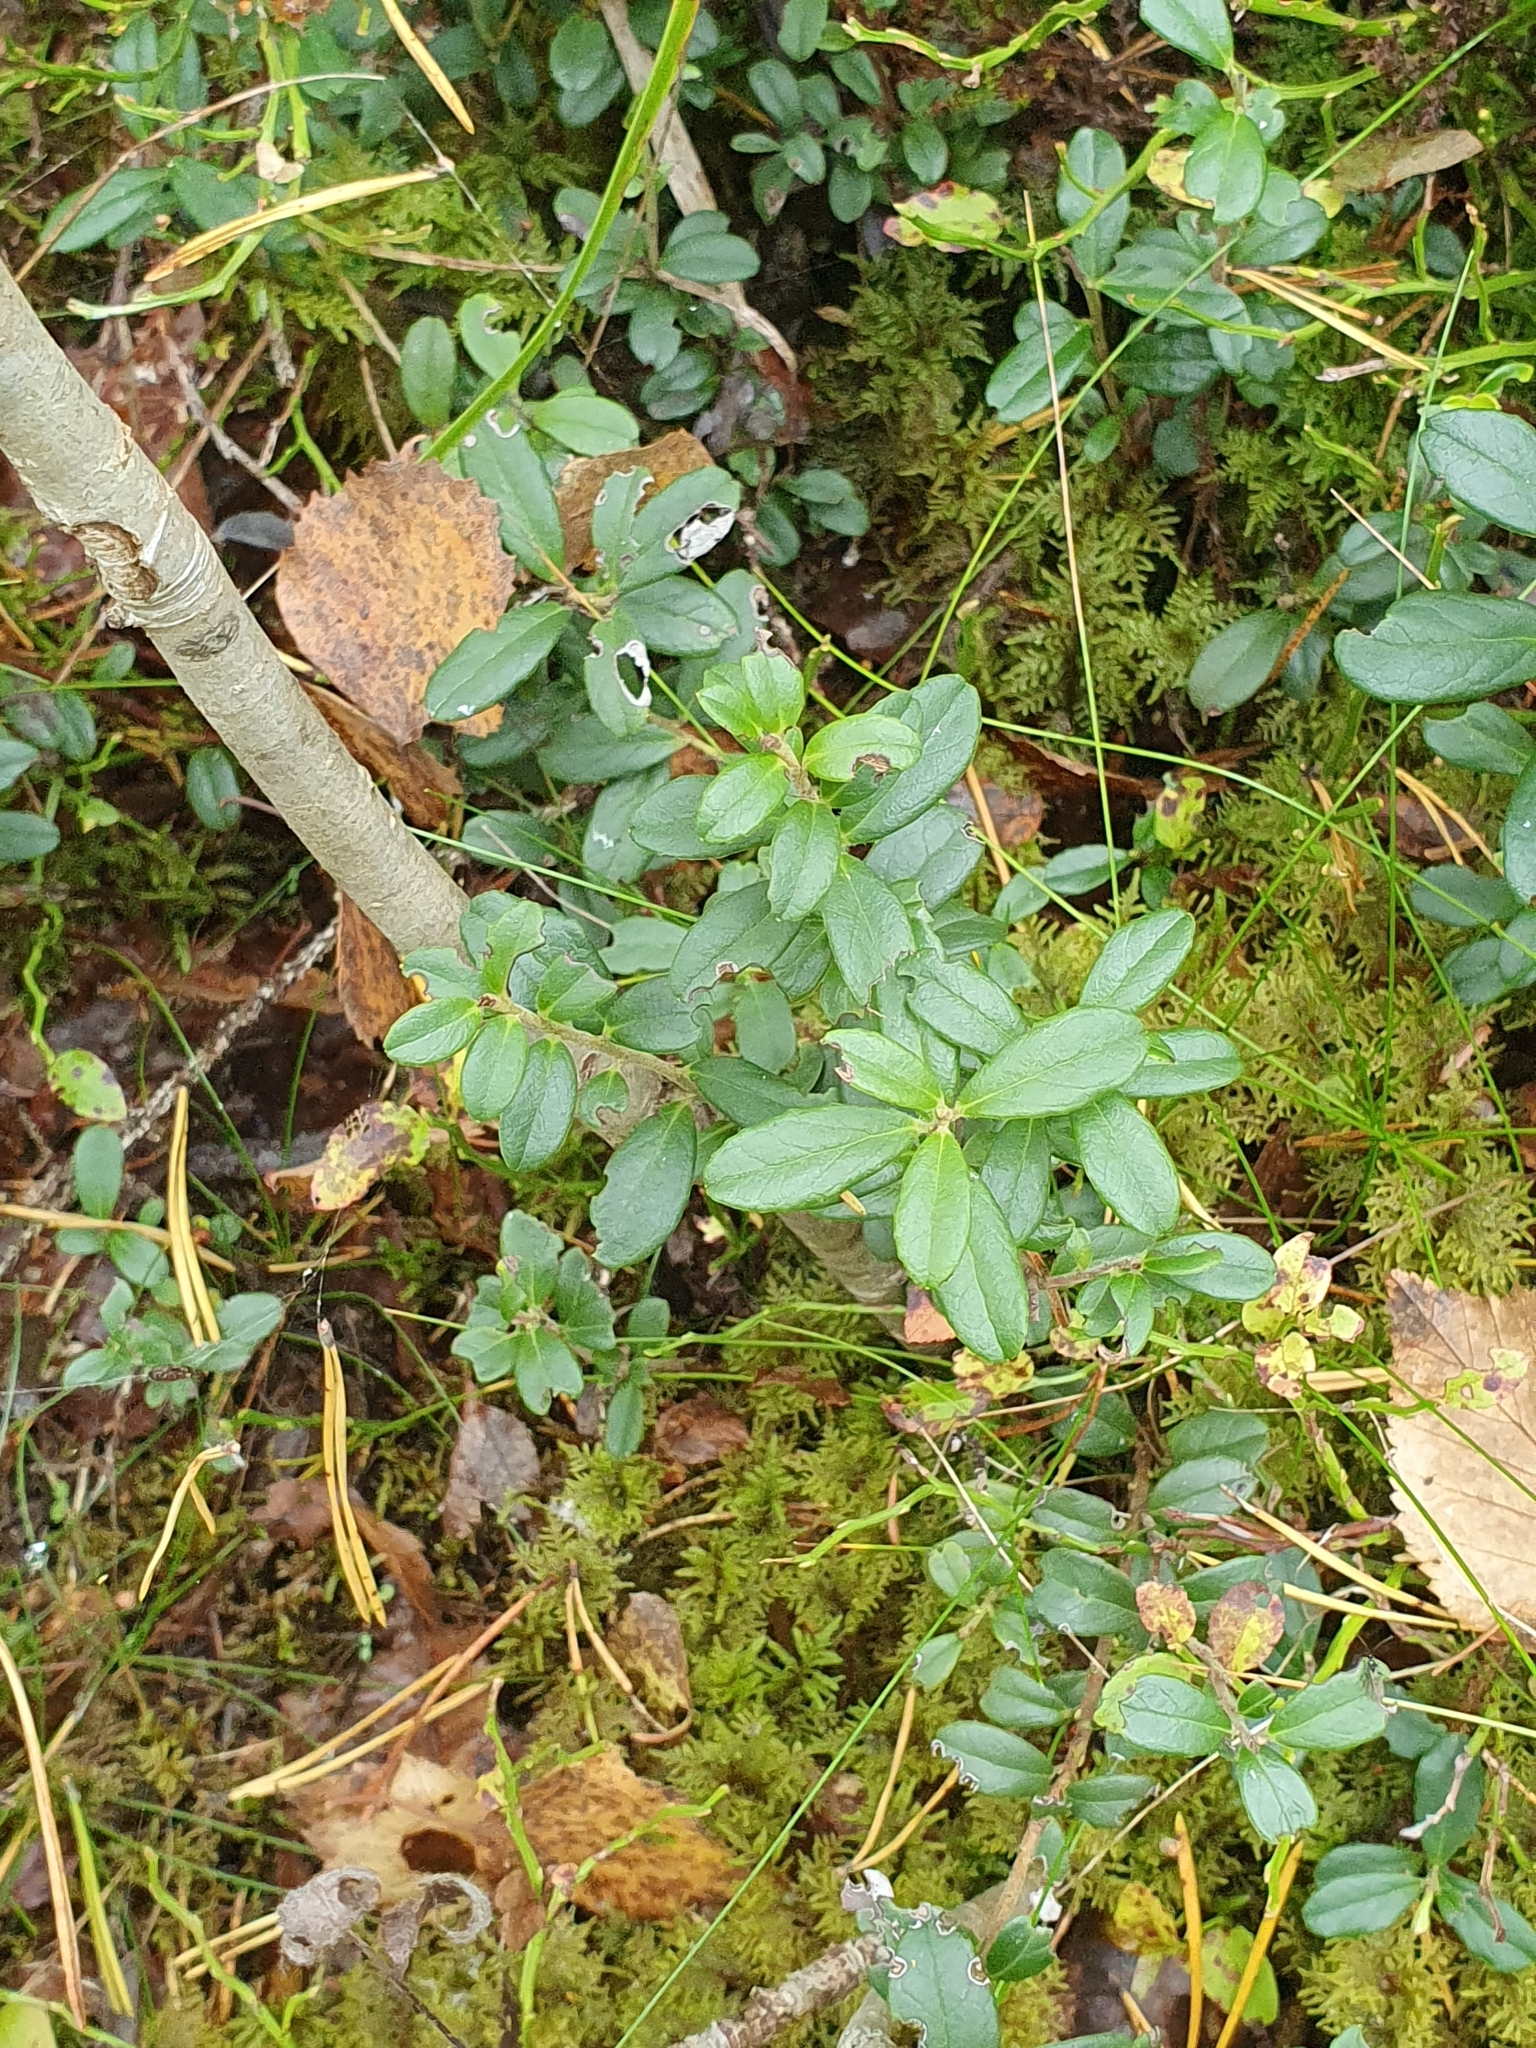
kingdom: Plantae
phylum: Tracheophyta
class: Magnoliopsida
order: Ericales
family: Ericaceae
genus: Vaccinium
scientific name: Vaccinium vitis-idaea
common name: Cowberry
